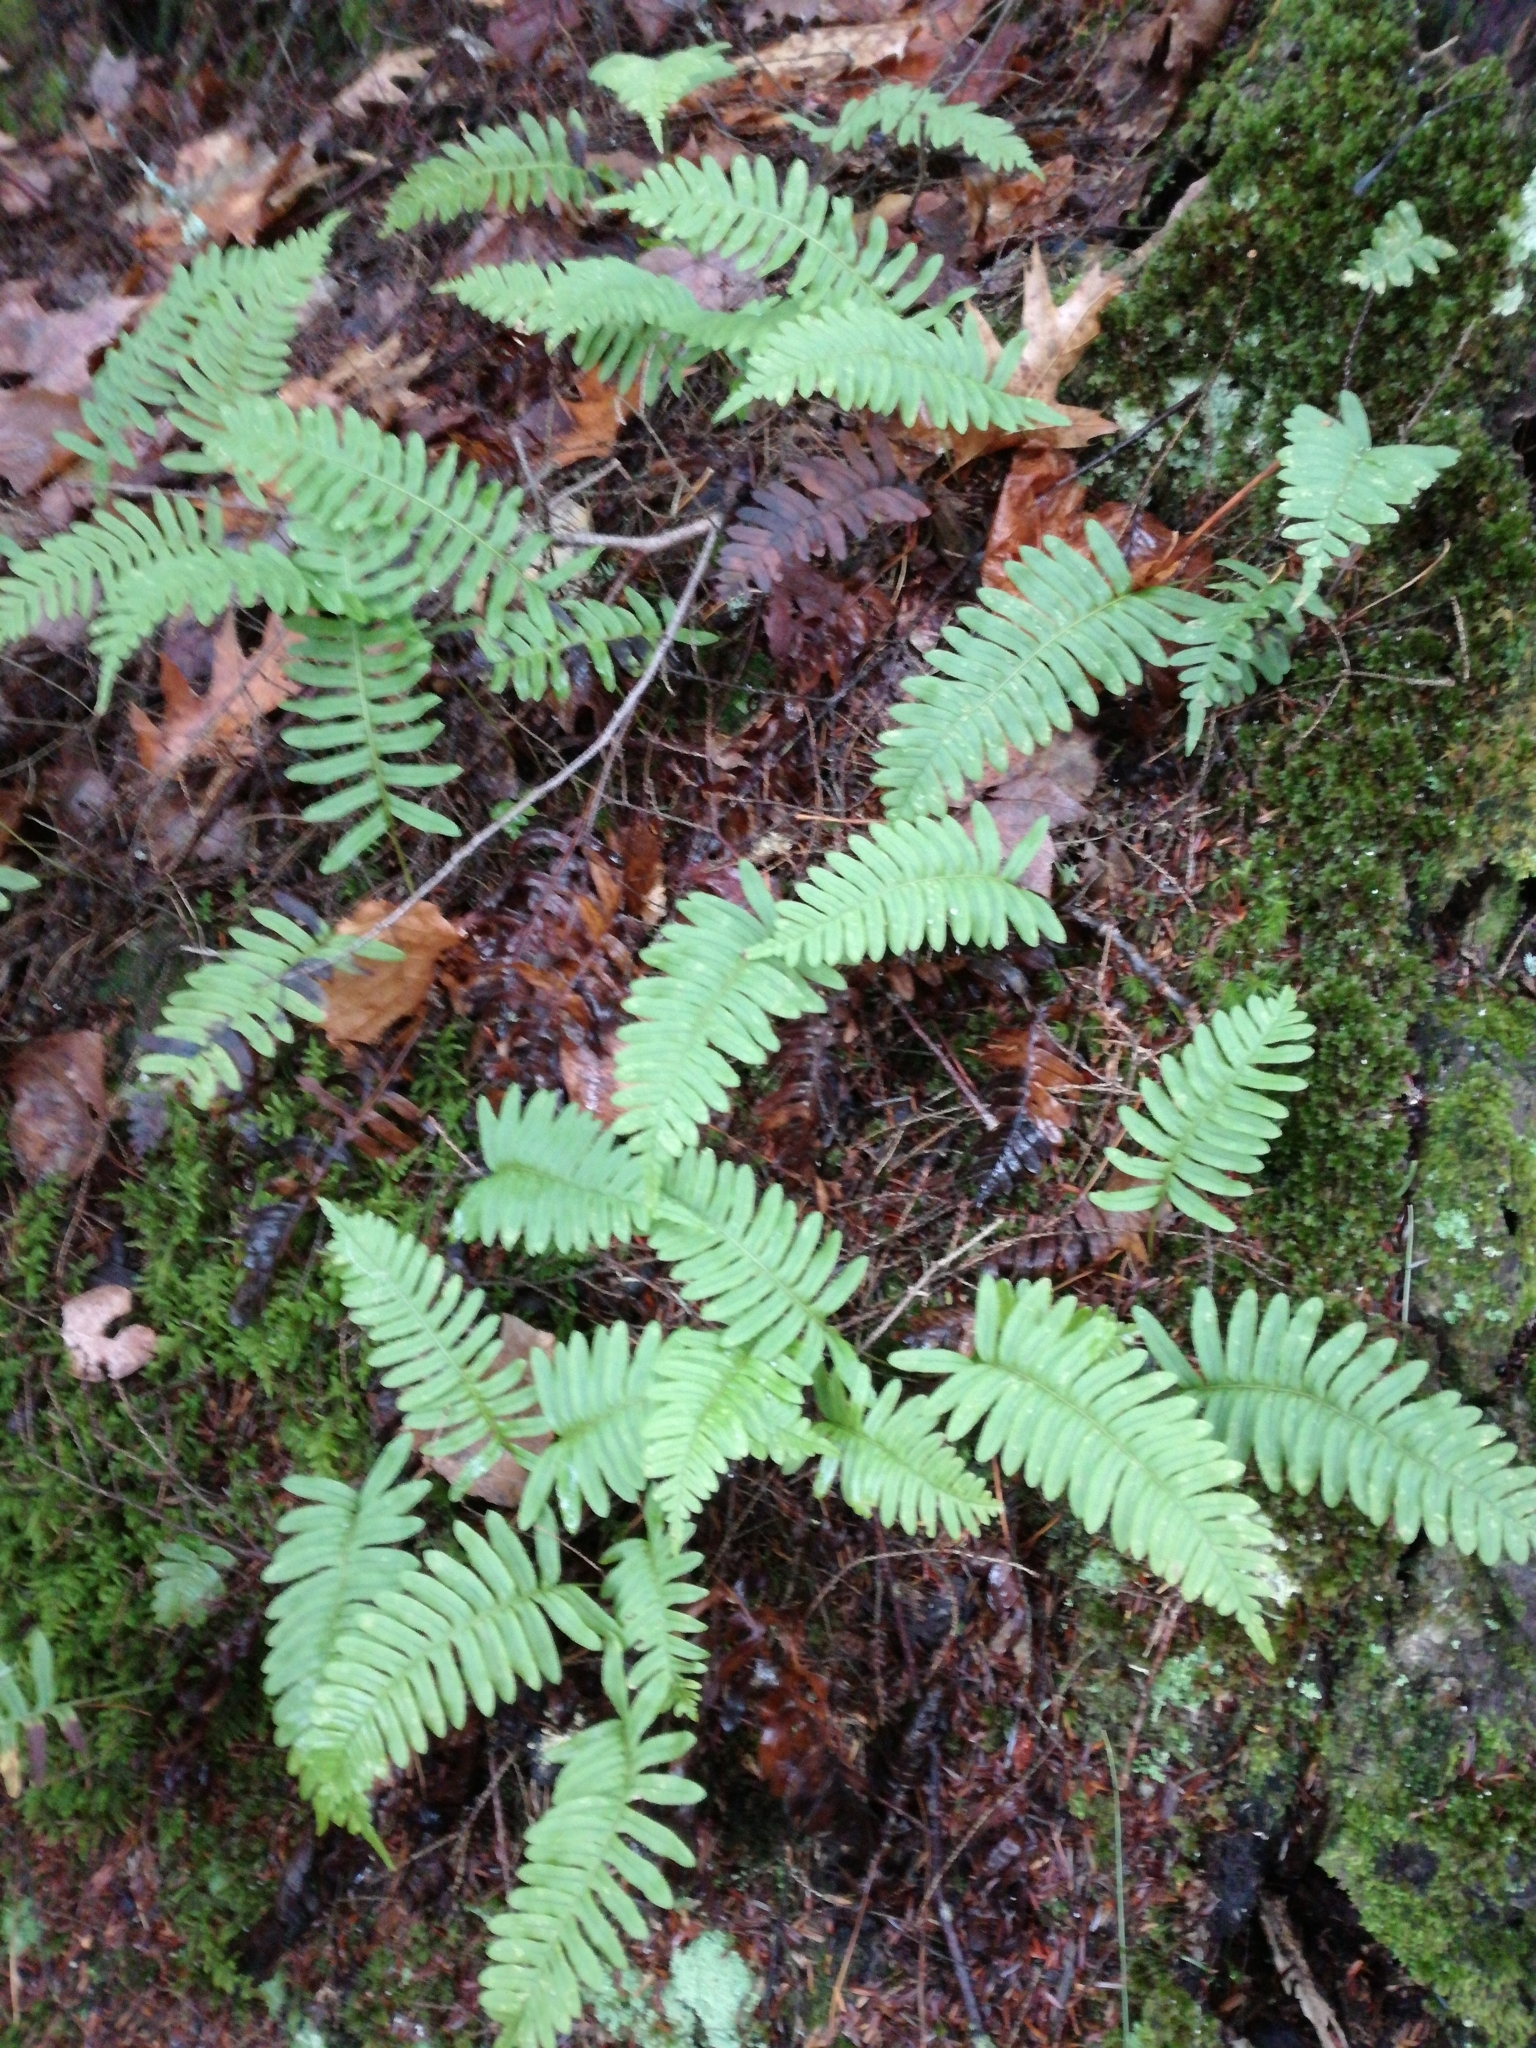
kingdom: Plantae
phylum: Tracheophyta
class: Polypodiopsida
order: Polypodiales
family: Polypodiaceae
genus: Polypodium
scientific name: Polypodium virginianum
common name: American wall fern
